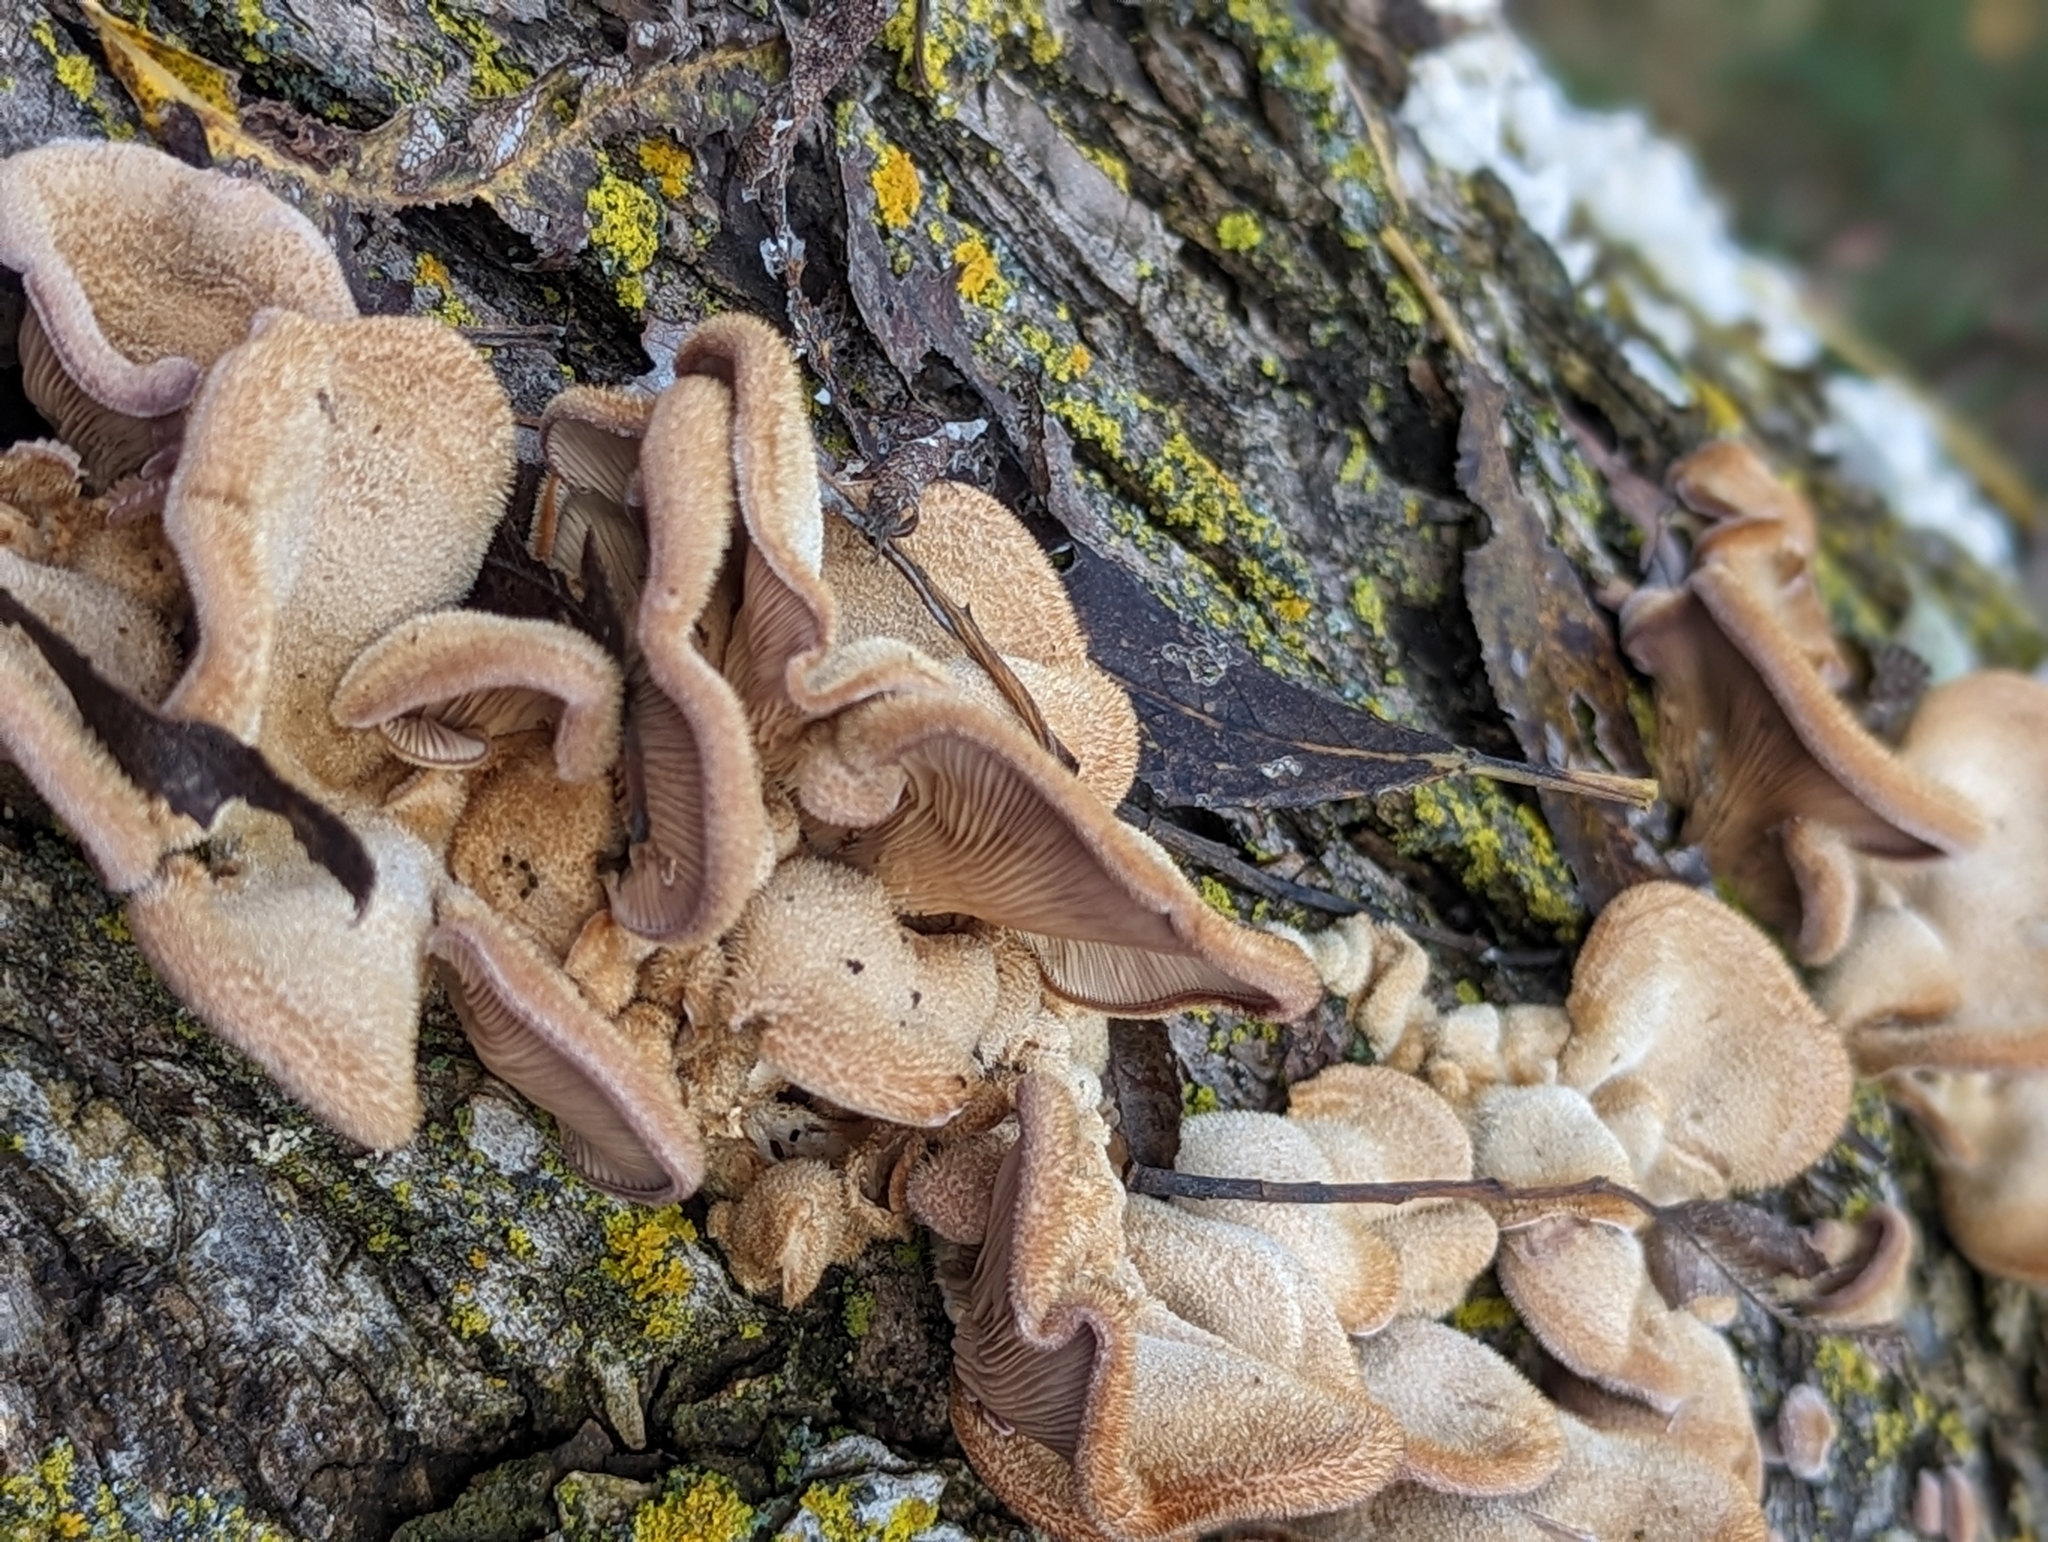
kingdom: Fungi
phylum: Basidiomycota
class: Agaricomycetes
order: Polyporales
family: Panaceae
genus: Panus
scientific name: Panus neostrigosus
